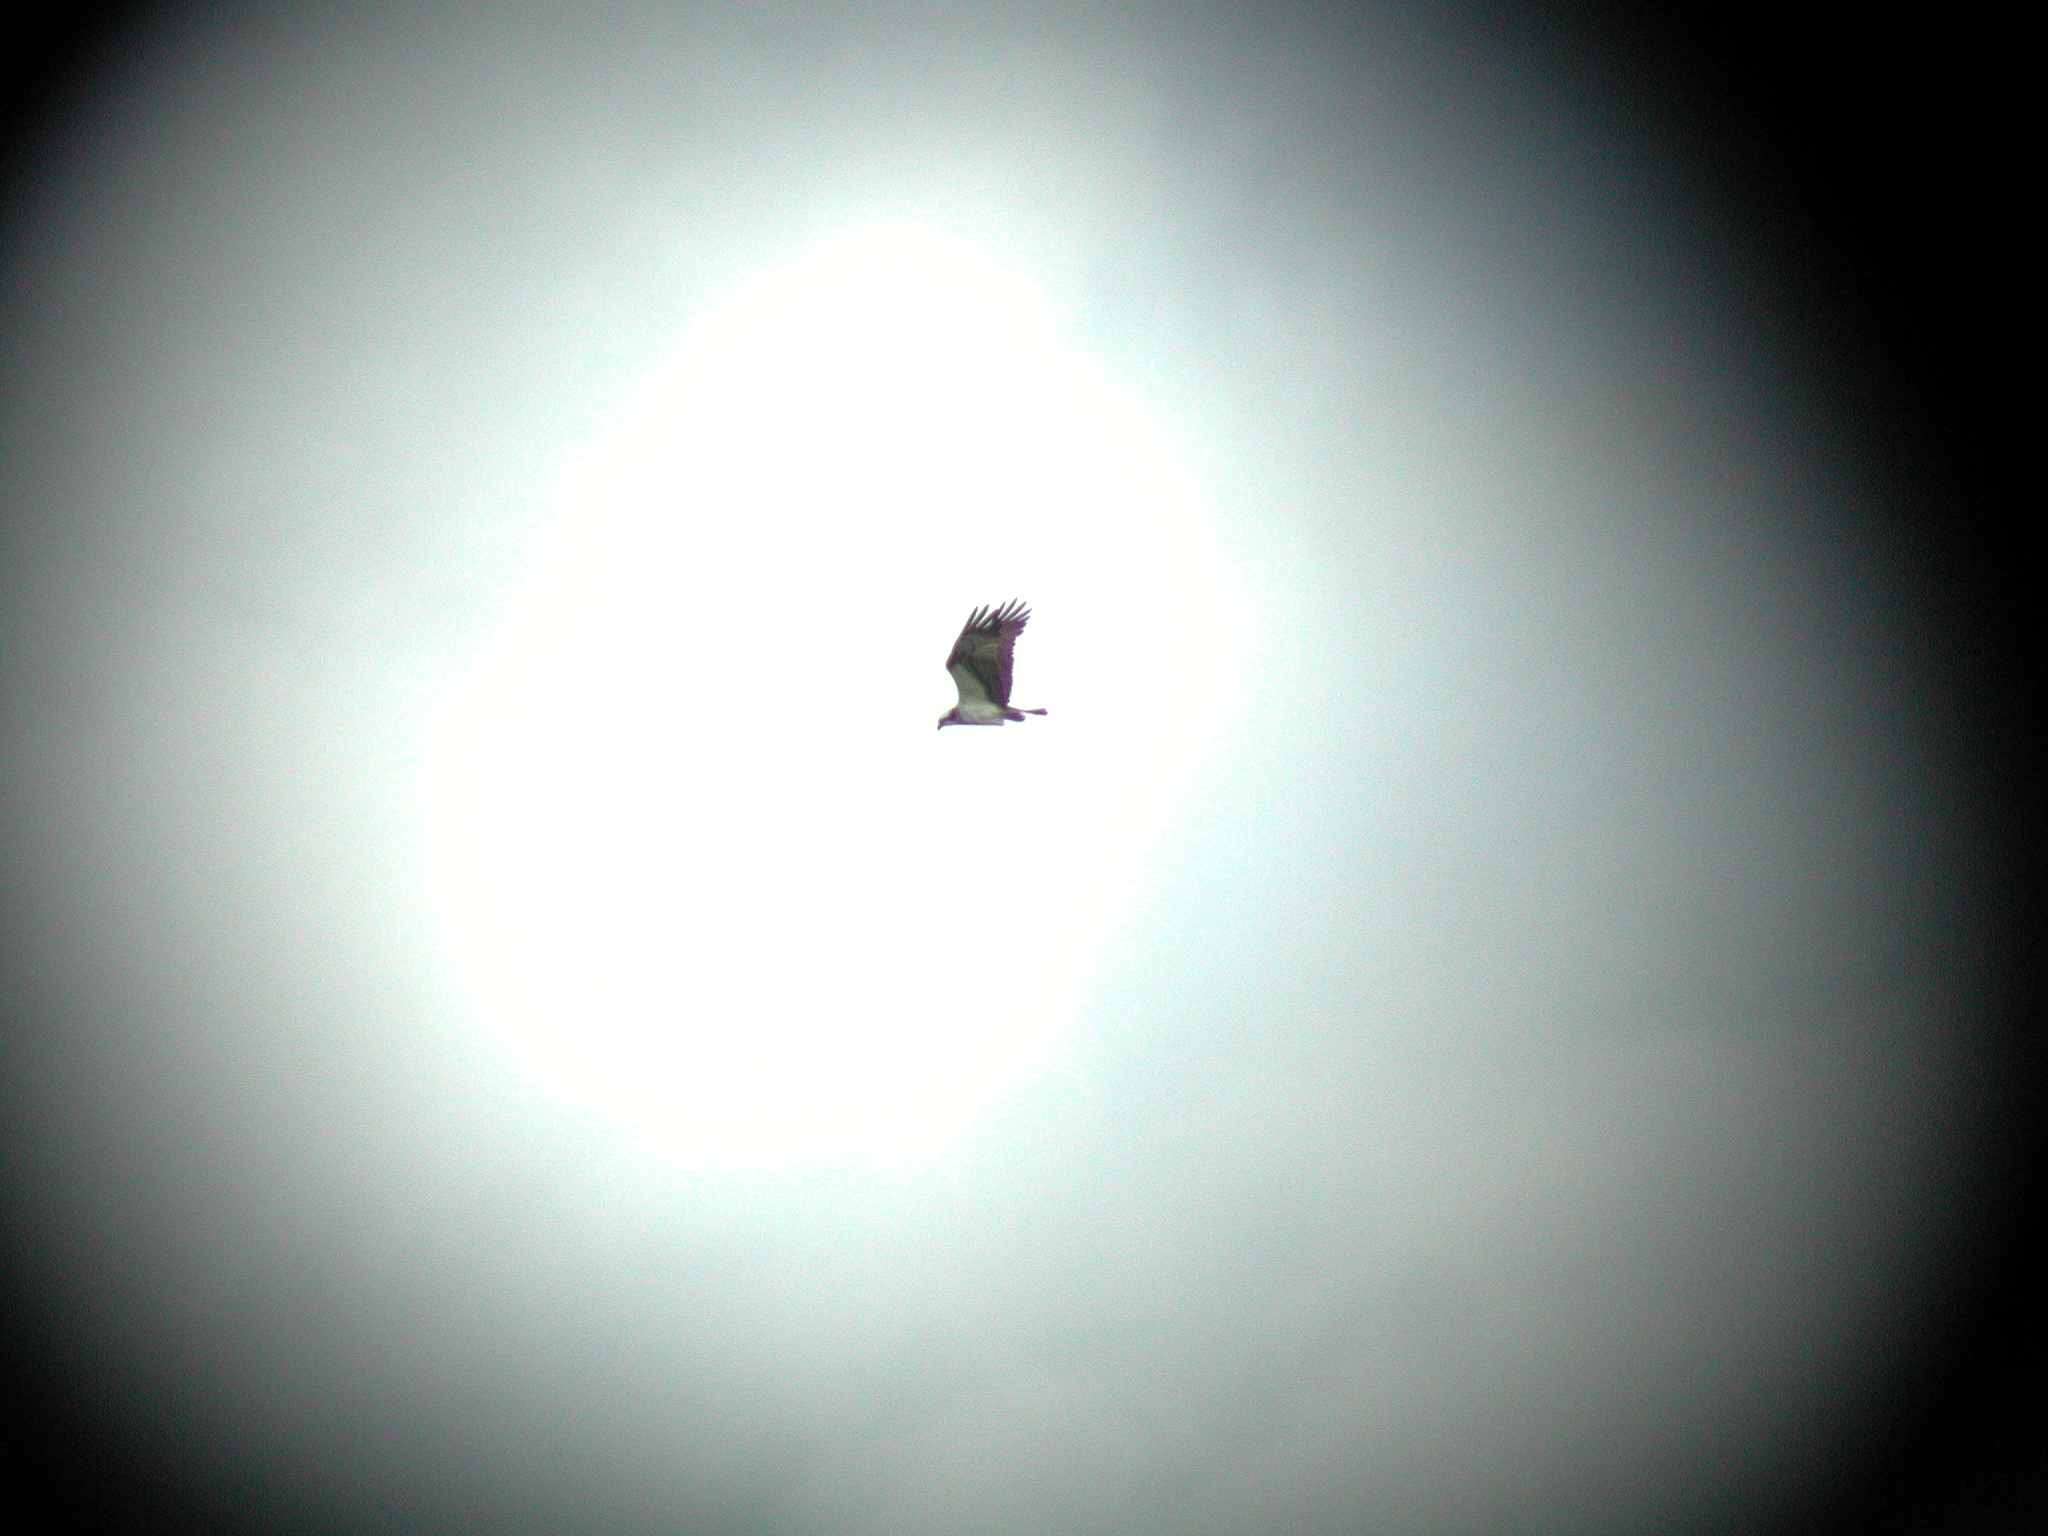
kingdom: Animalia
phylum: Chordata
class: Aves
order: Accipitriformes
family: Pandionidae
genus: Pandion
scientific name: Pandion haliaetus
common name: Osprey
